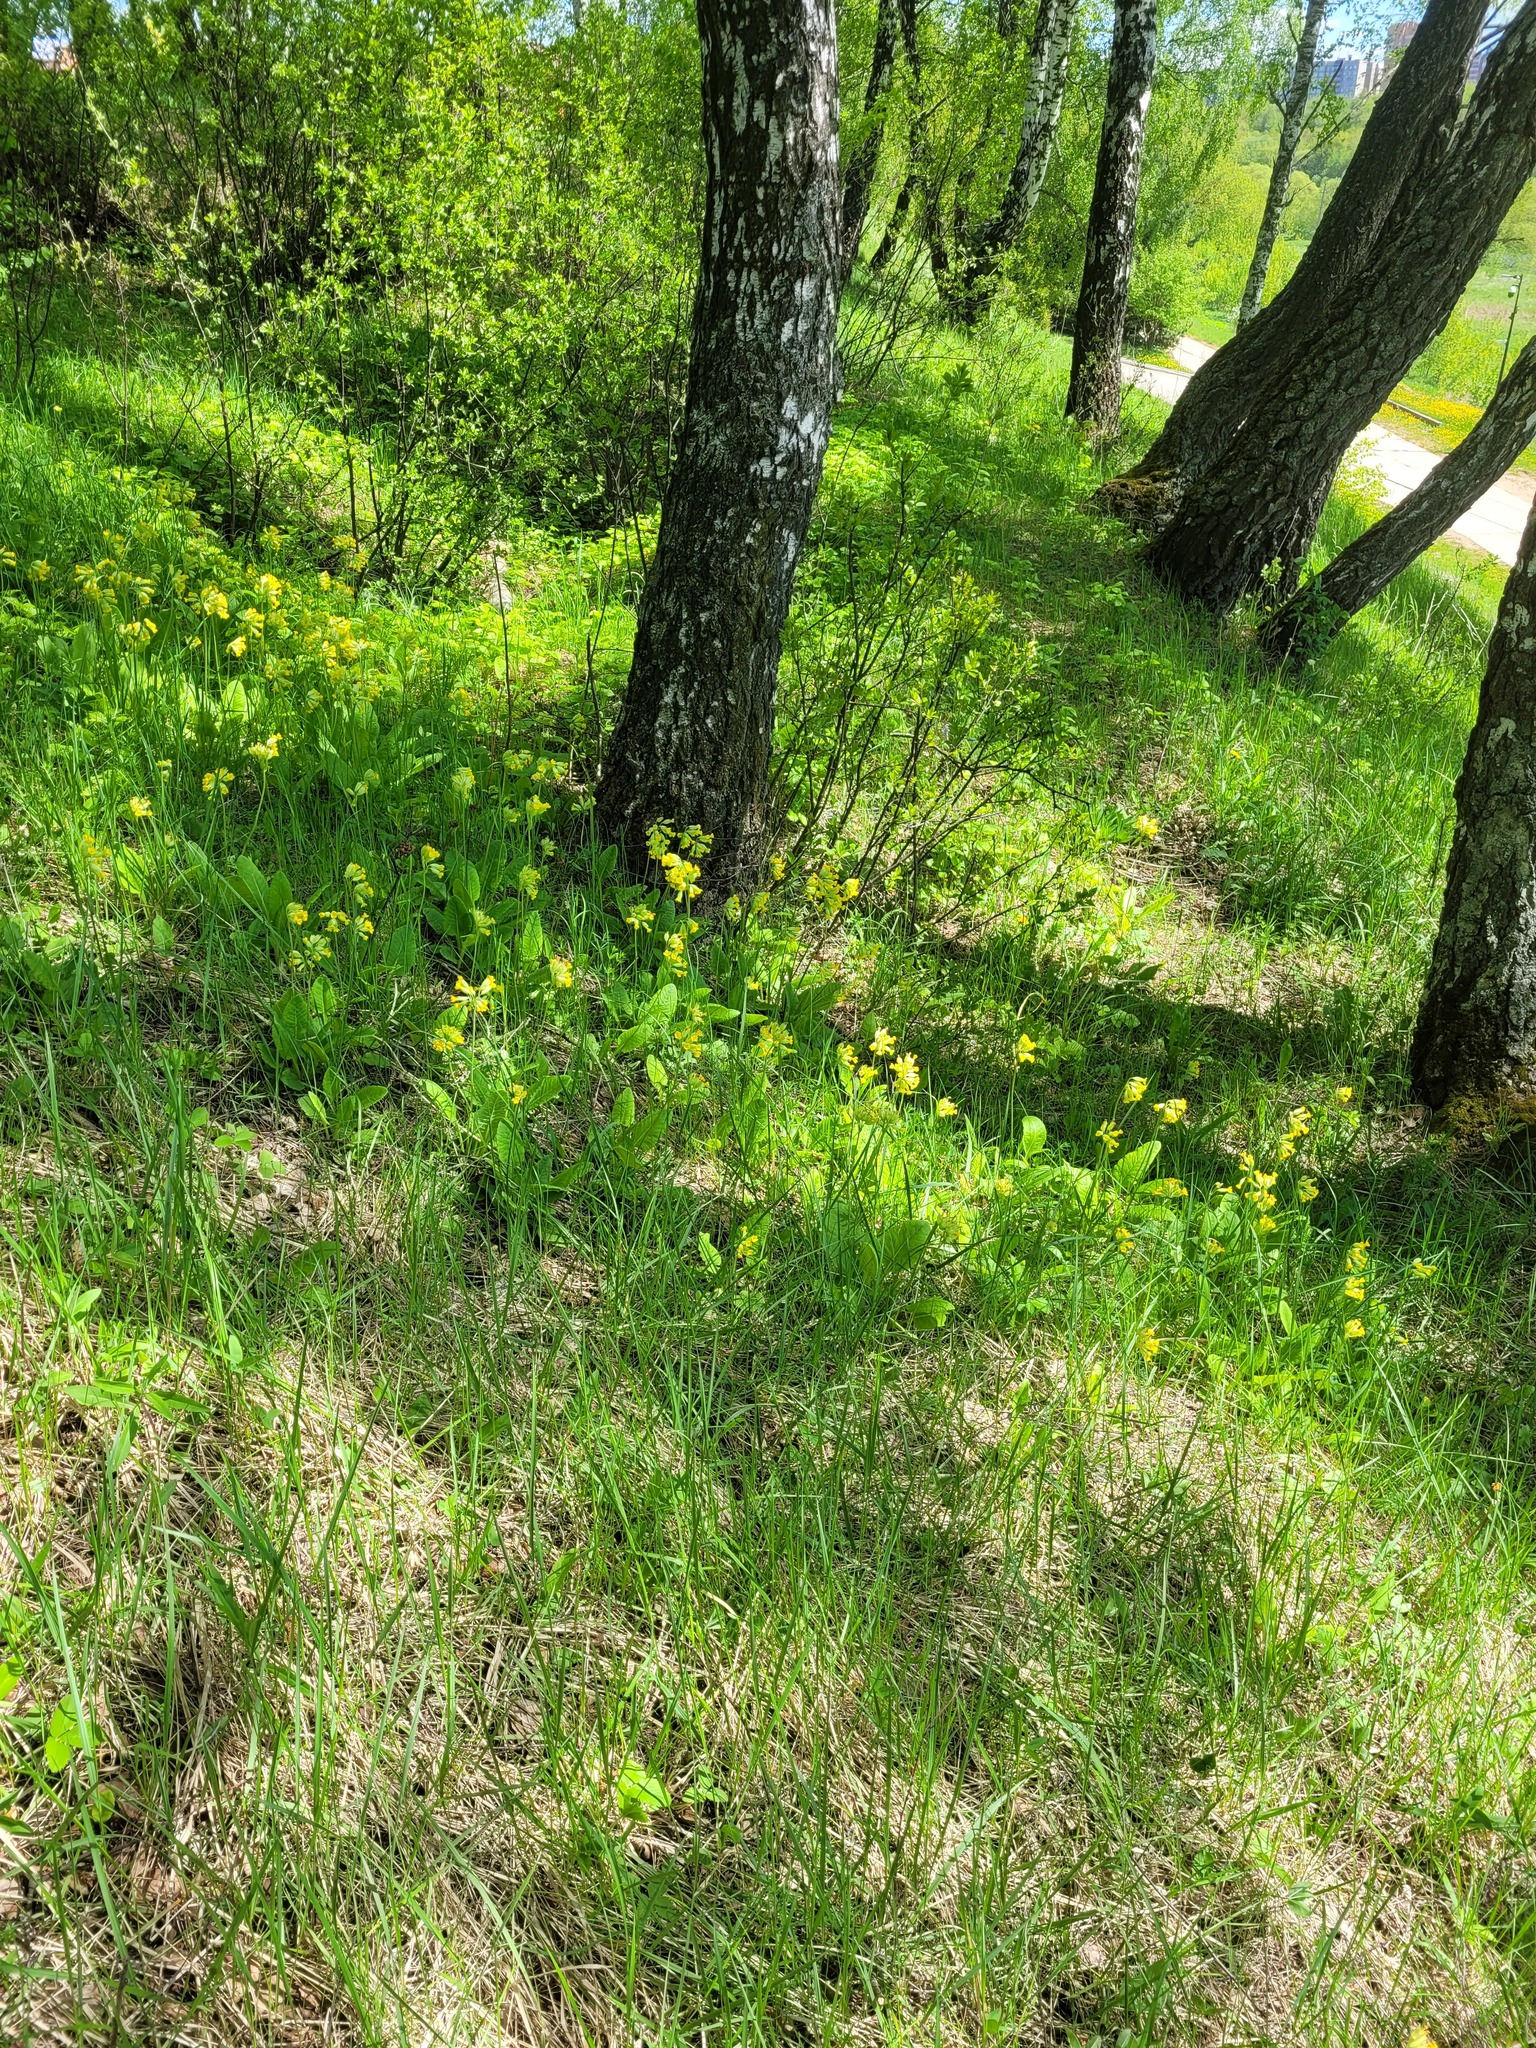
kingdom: Plantae
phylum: Tracheophyta
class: Magnoliopsida
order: Ericales
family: Primulaceae
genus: Primula
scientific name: Primula veris
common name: Cowslip
